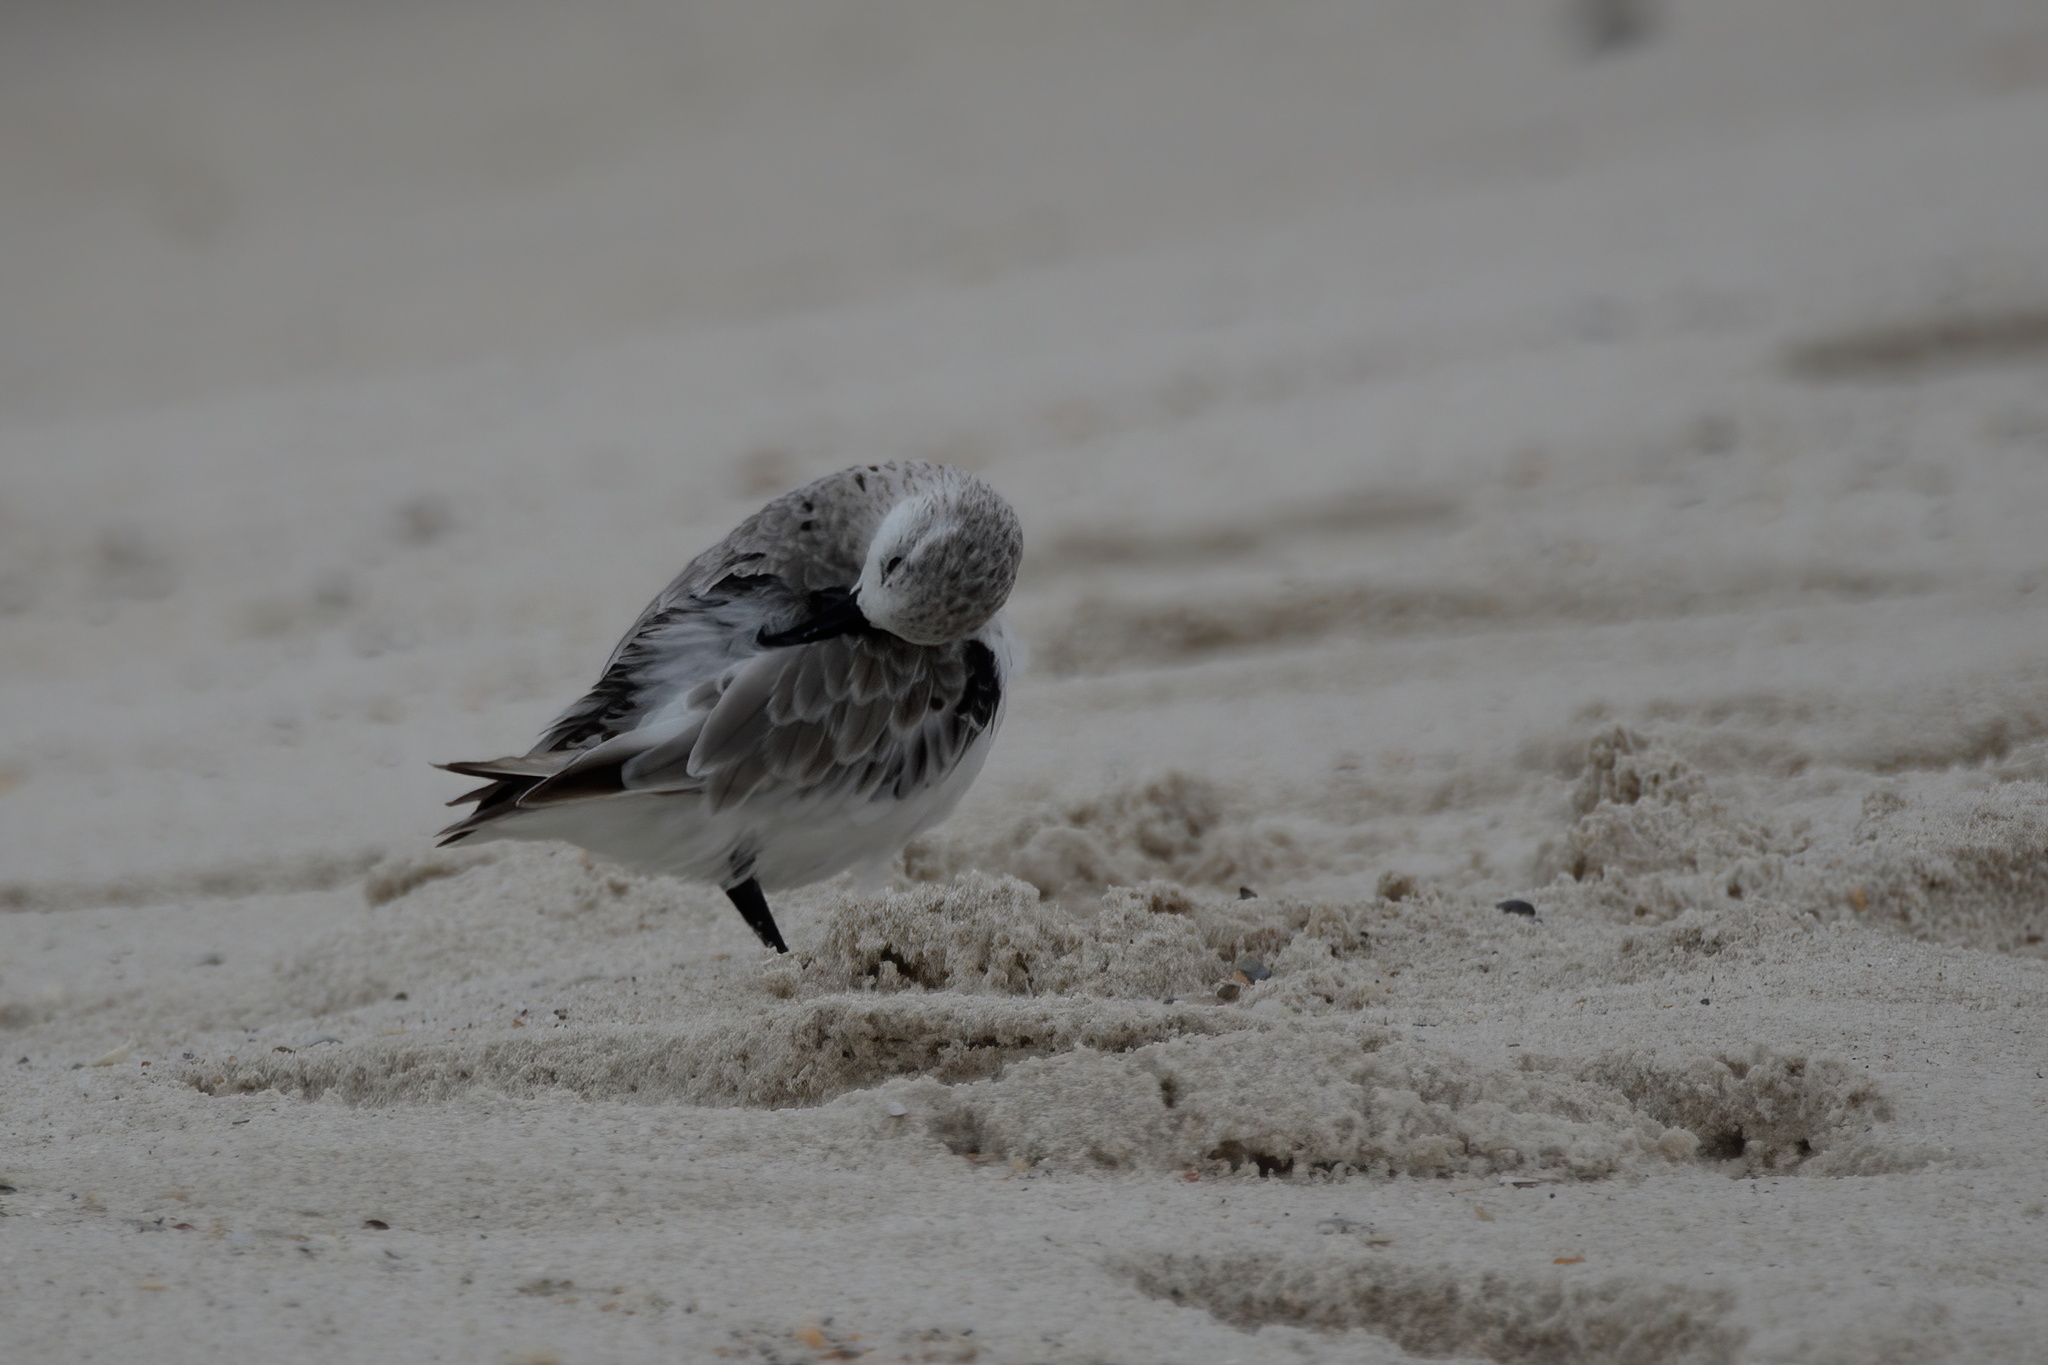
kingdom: Animalia
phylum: Chordata
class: Aves
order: Charadriiformes
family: Scolopacidae
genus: Calidris
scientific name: Calidris alba
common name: Sanderling
